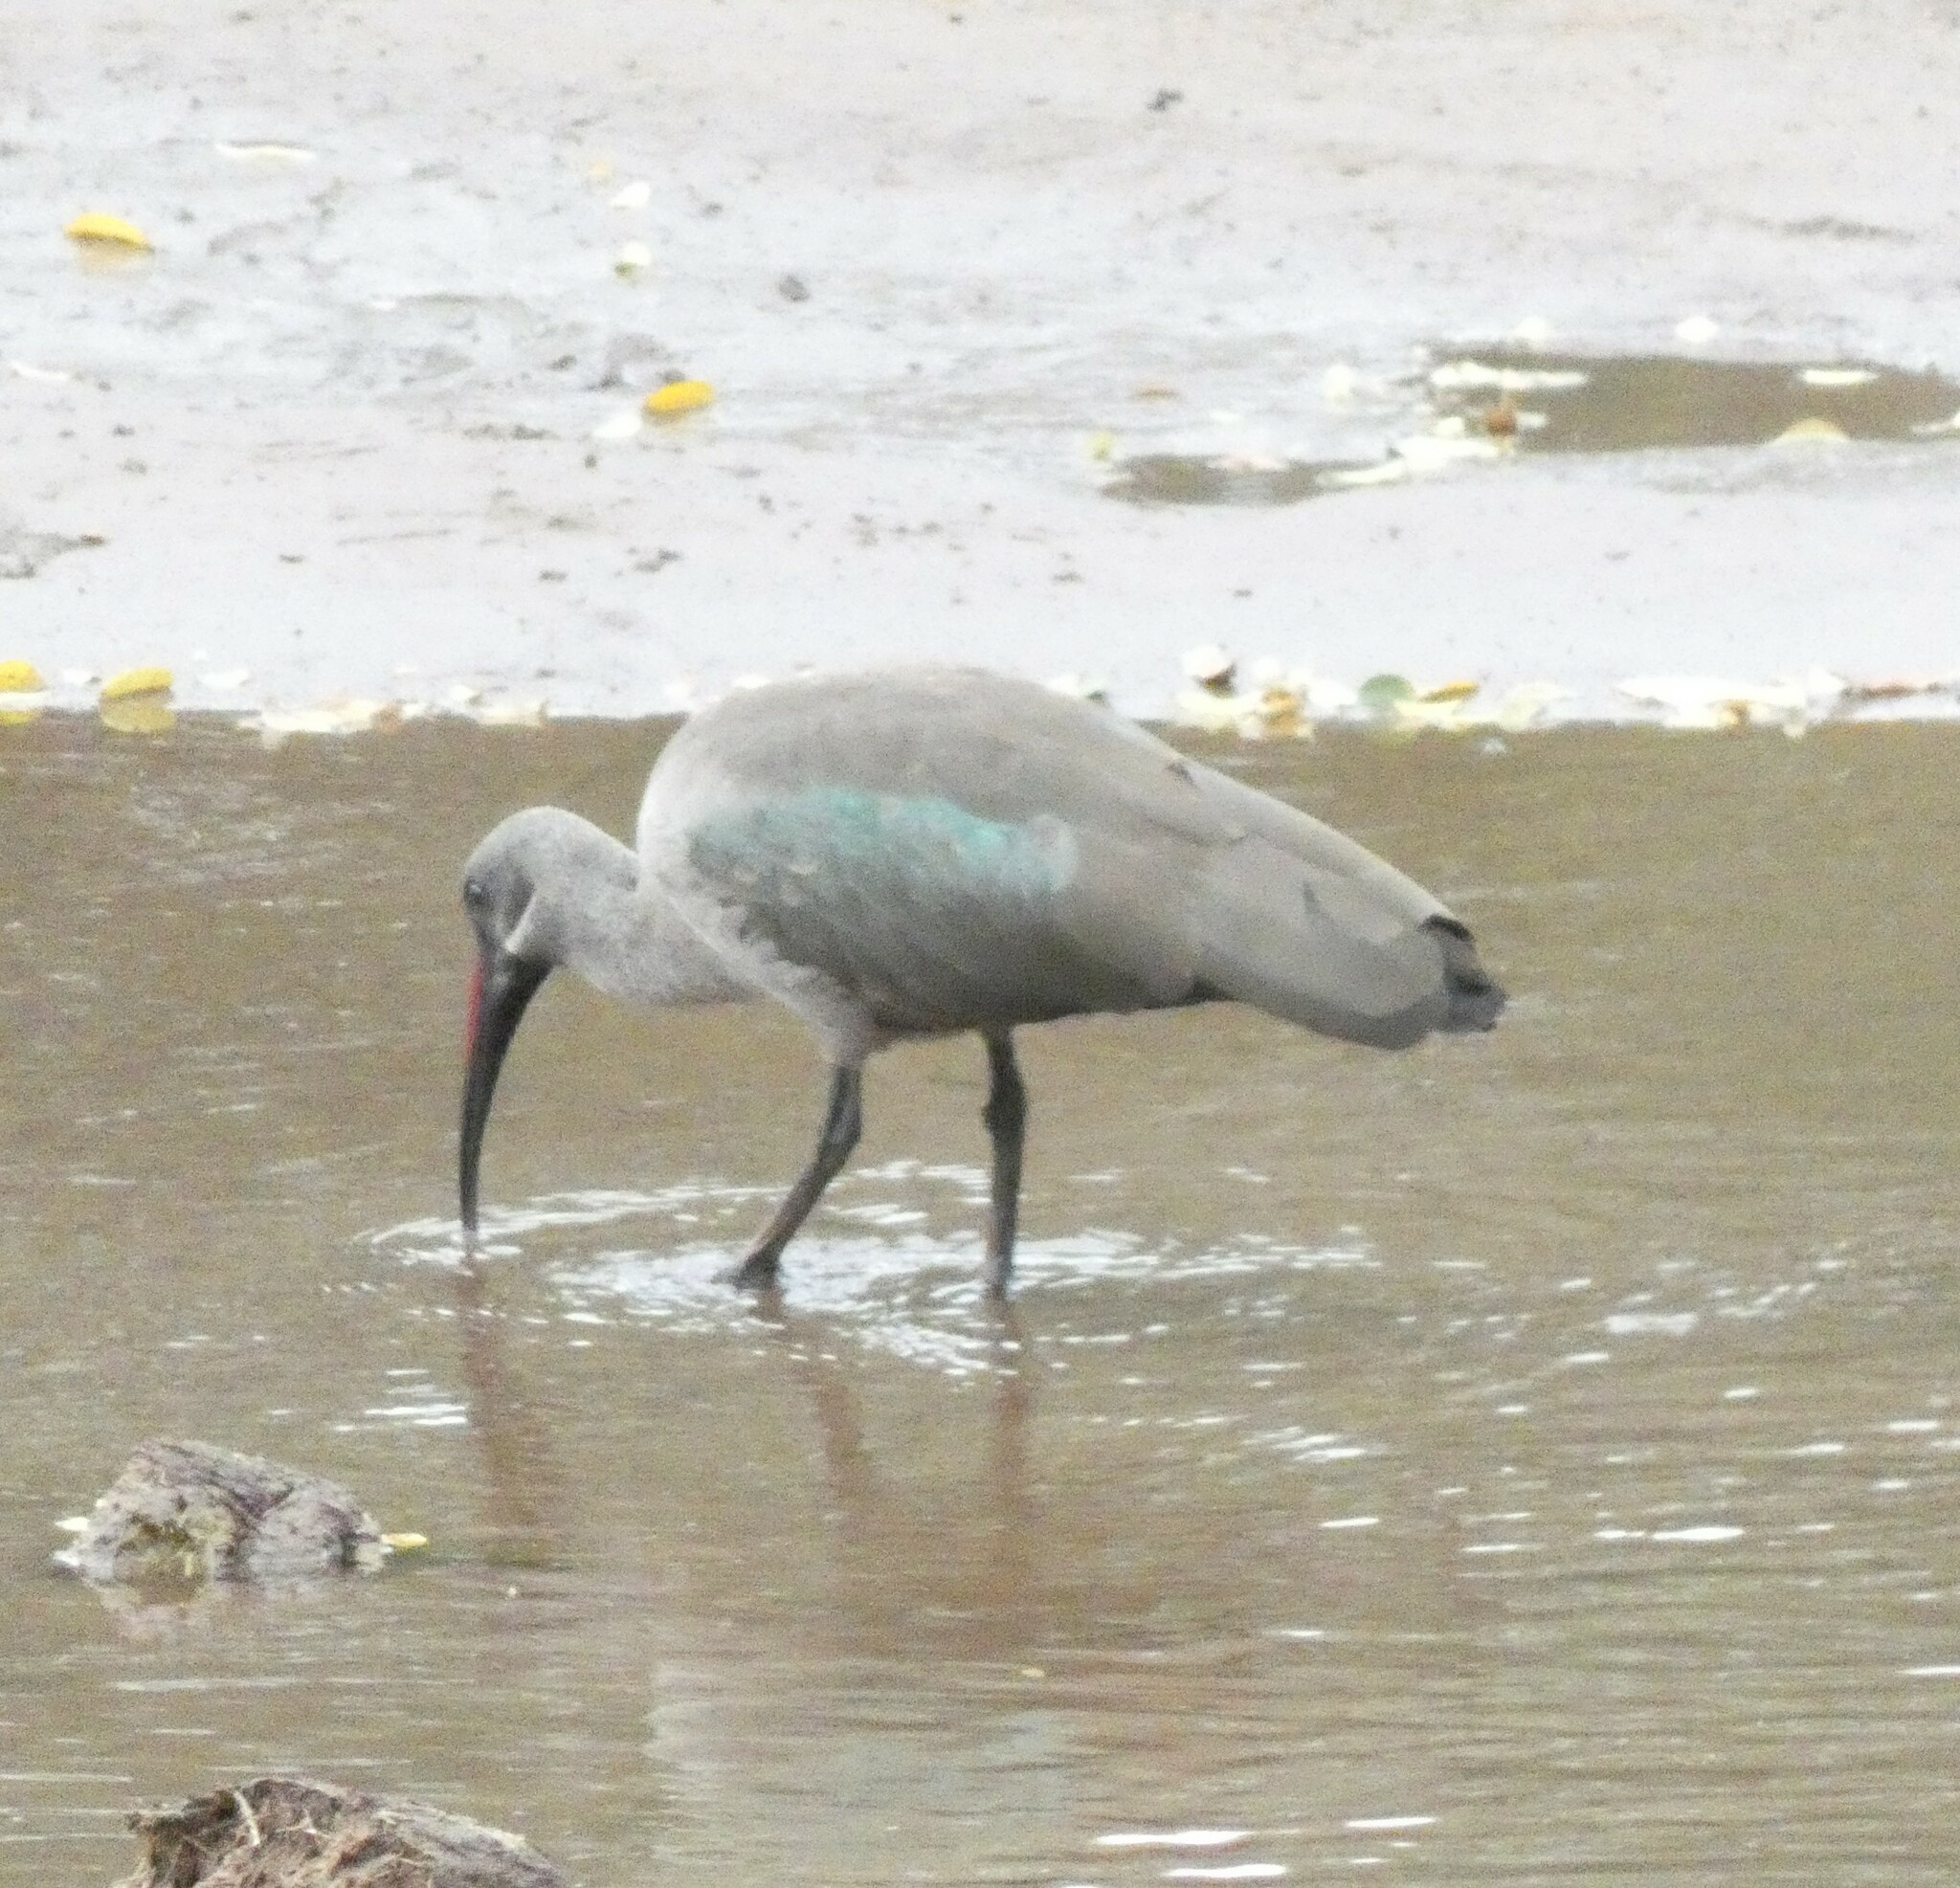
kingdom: Animalia
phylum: Chordata
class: Aves
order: Pelecaniformes
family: Threskiornithidae
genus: Bostrychia
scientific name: Bostrychia hagedash
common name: Hadada ibis
